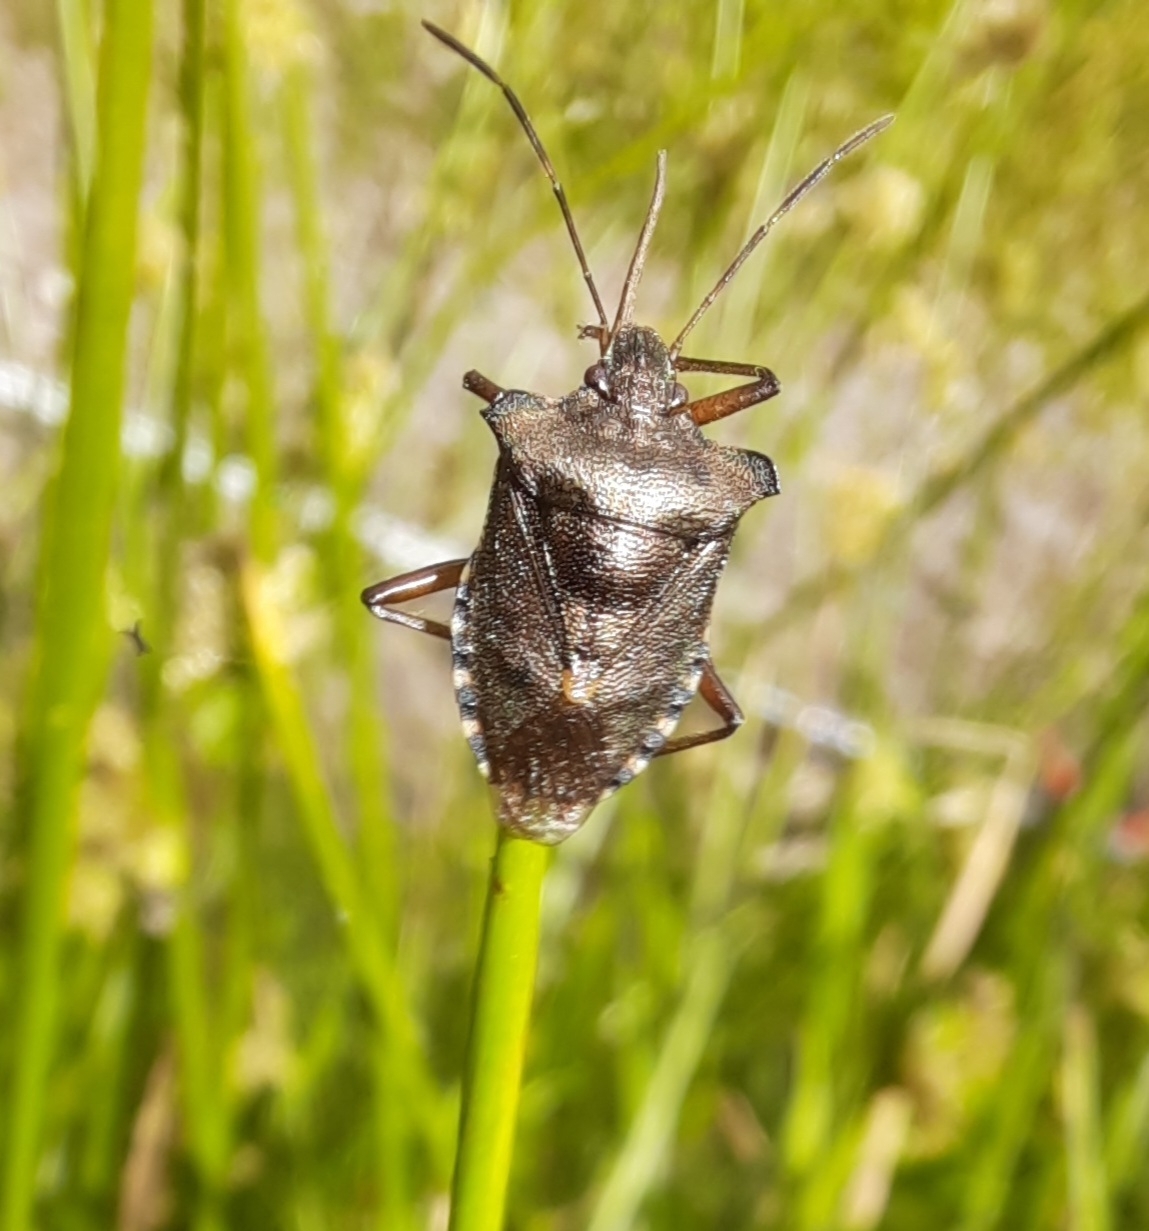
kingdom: Animalia
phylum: Arthropoda
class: Insecta
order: Hemiptera
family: Pentatomidae
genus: Pentatoma
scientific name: Pentatoma rufipes
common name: Forest bug
